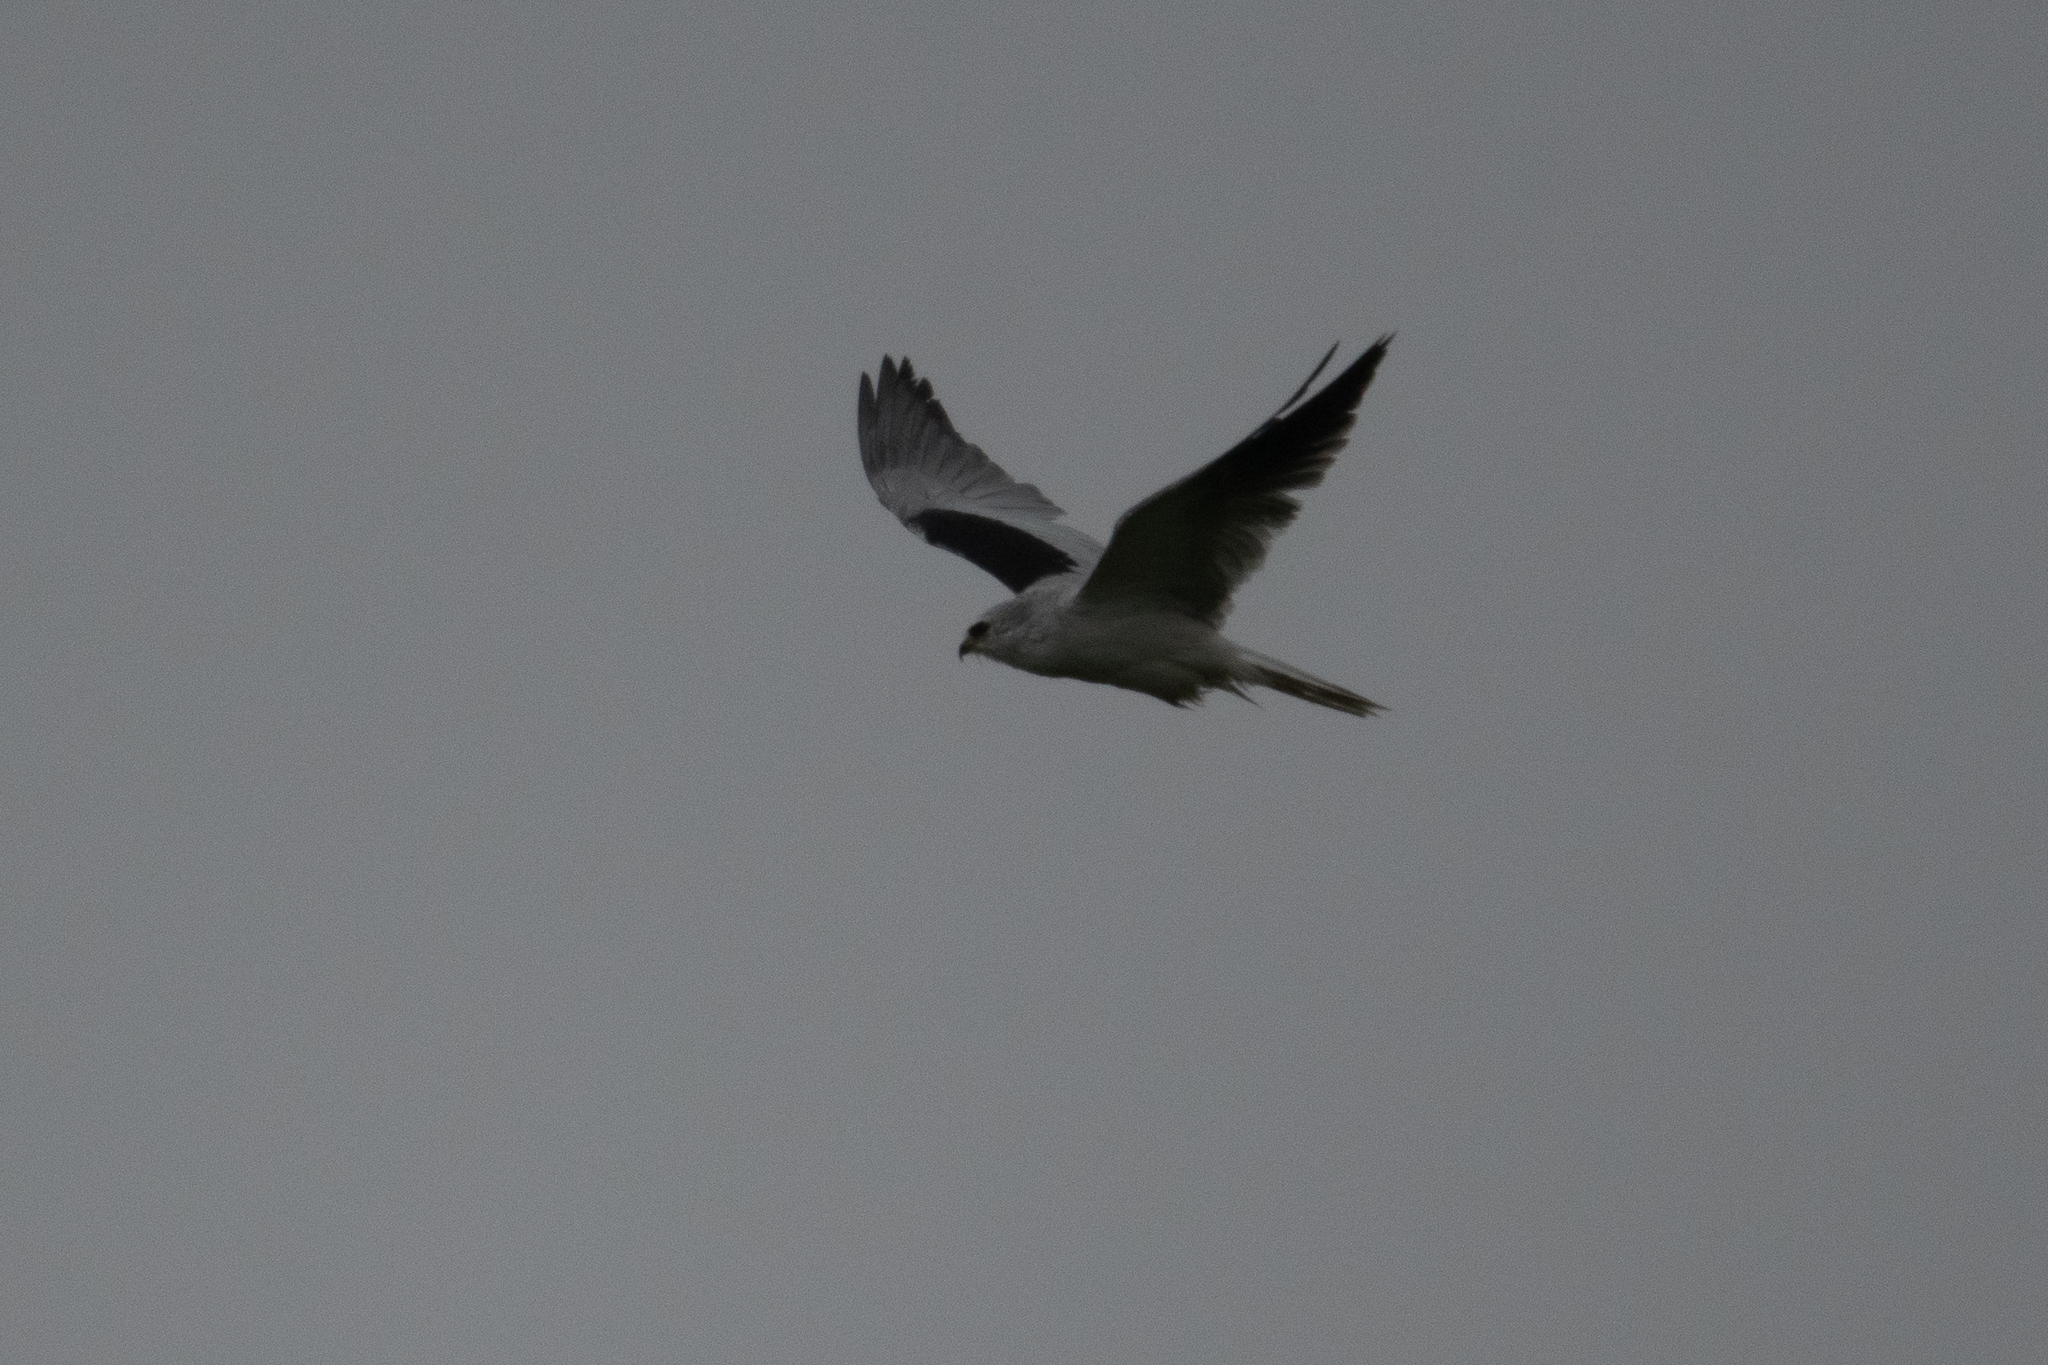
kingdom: Animalia
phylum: Chordata
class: Aves
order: Accipitriformes
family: Accipitridae
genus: Elanus
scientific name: Elanus leucurus
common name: White-tailed kite
